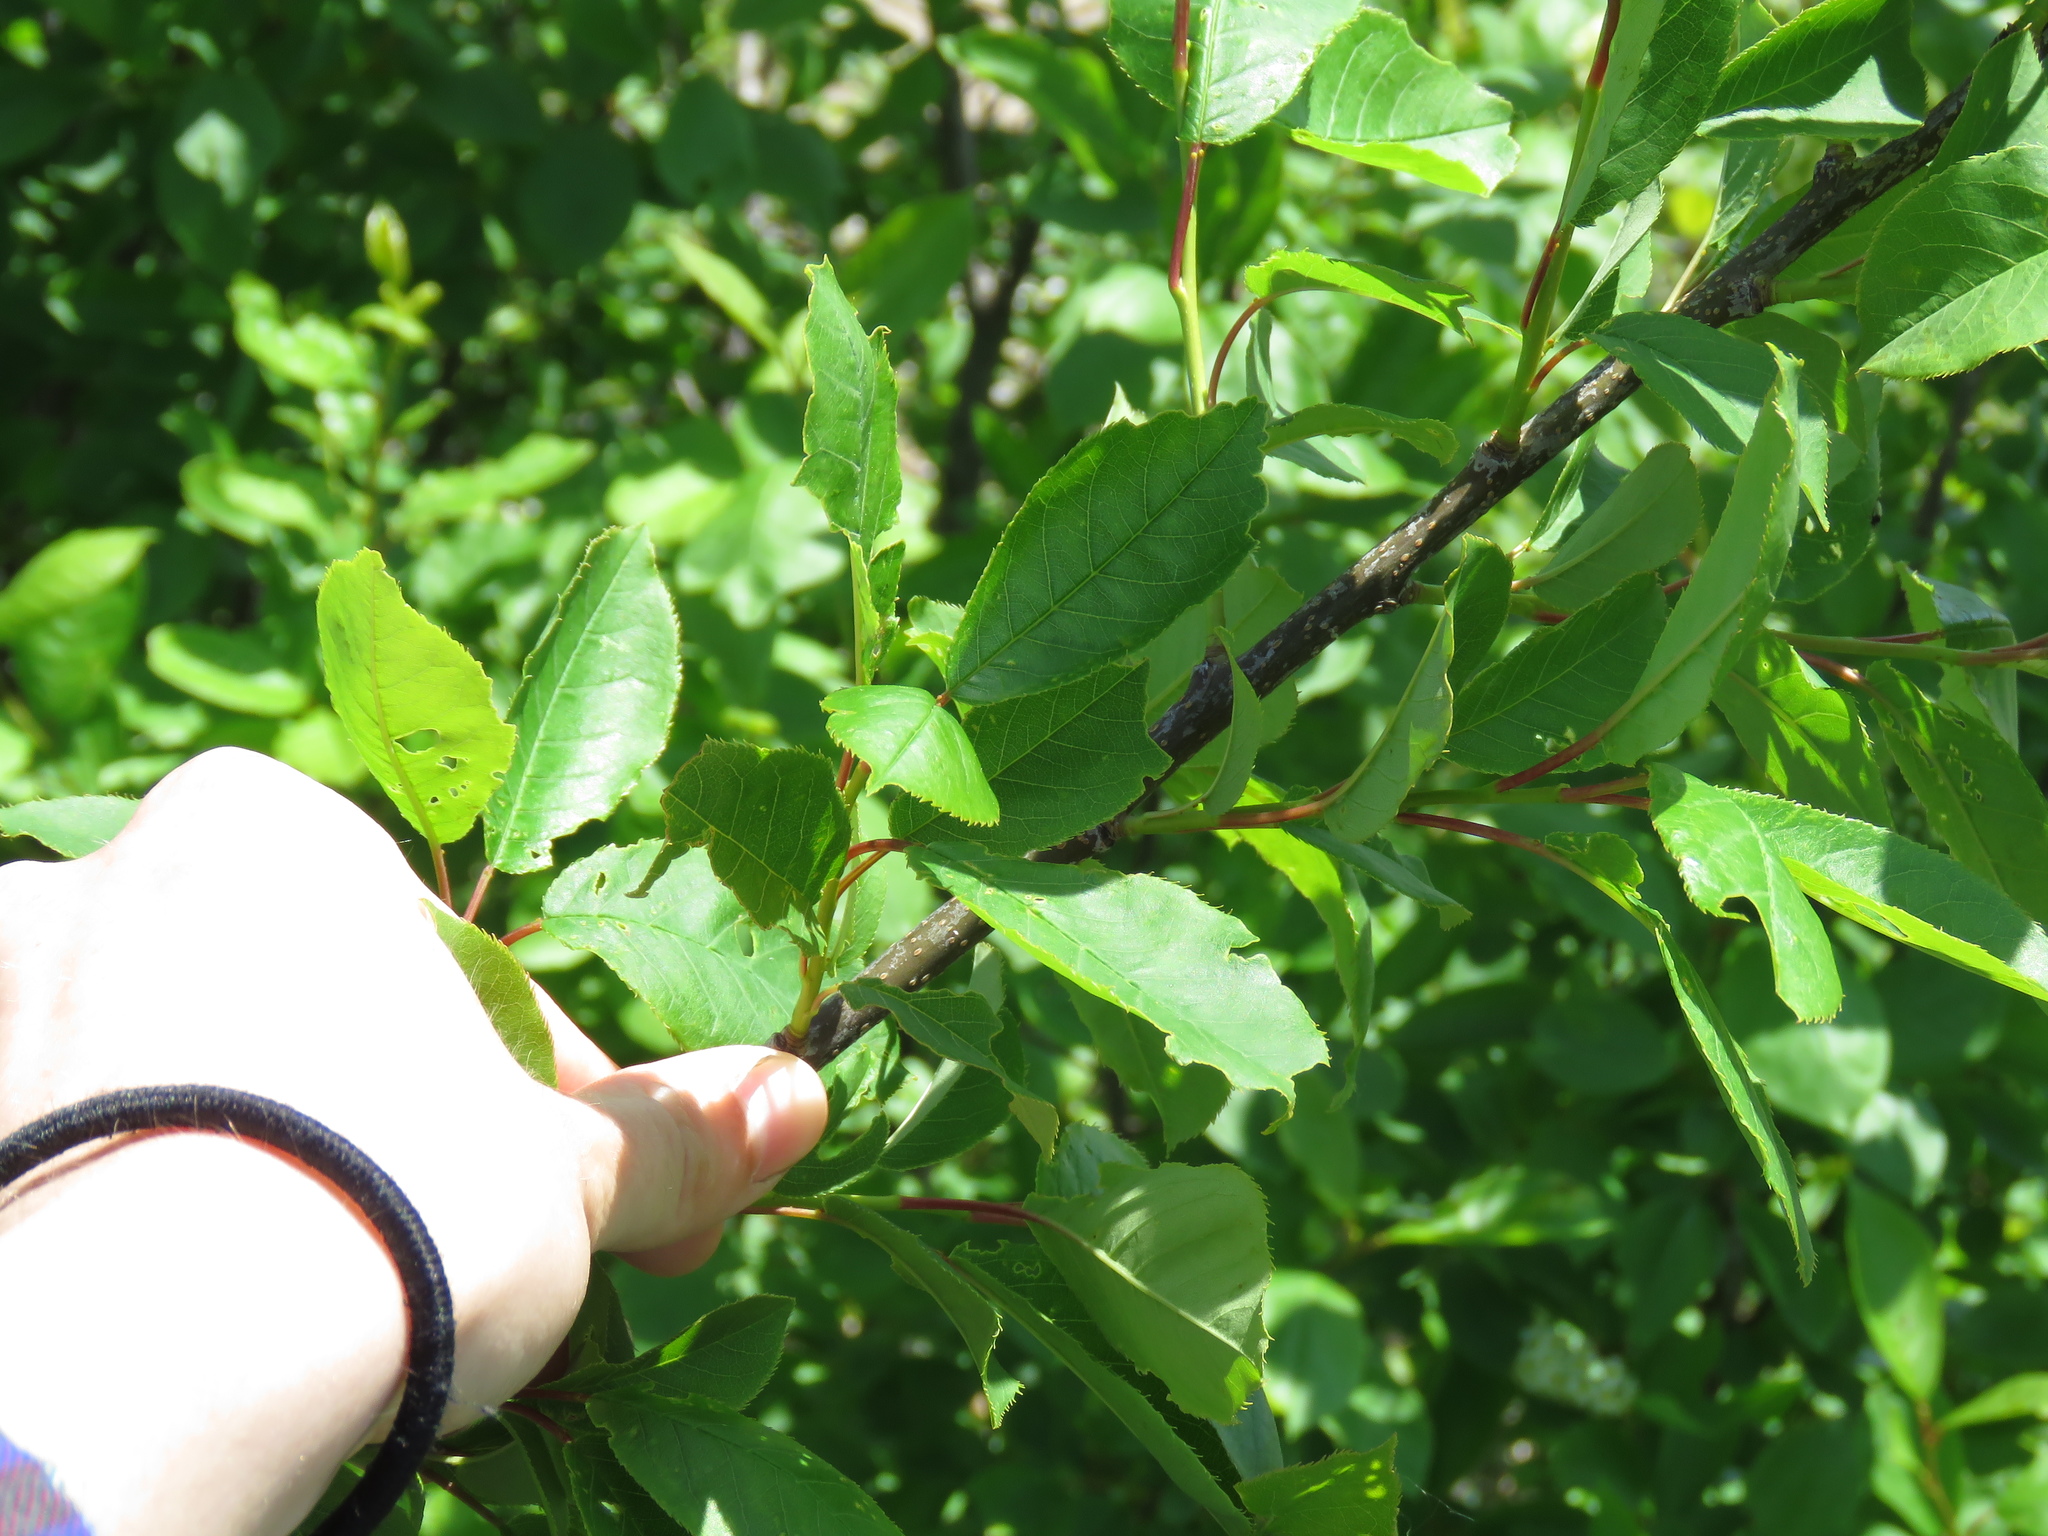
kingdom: Plantae
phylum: Tracheophyta
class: Magnoliopsida
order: Rosales
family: Rosaceae
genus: Prunus
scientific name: Prunus virginiana
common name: Chokecherry
